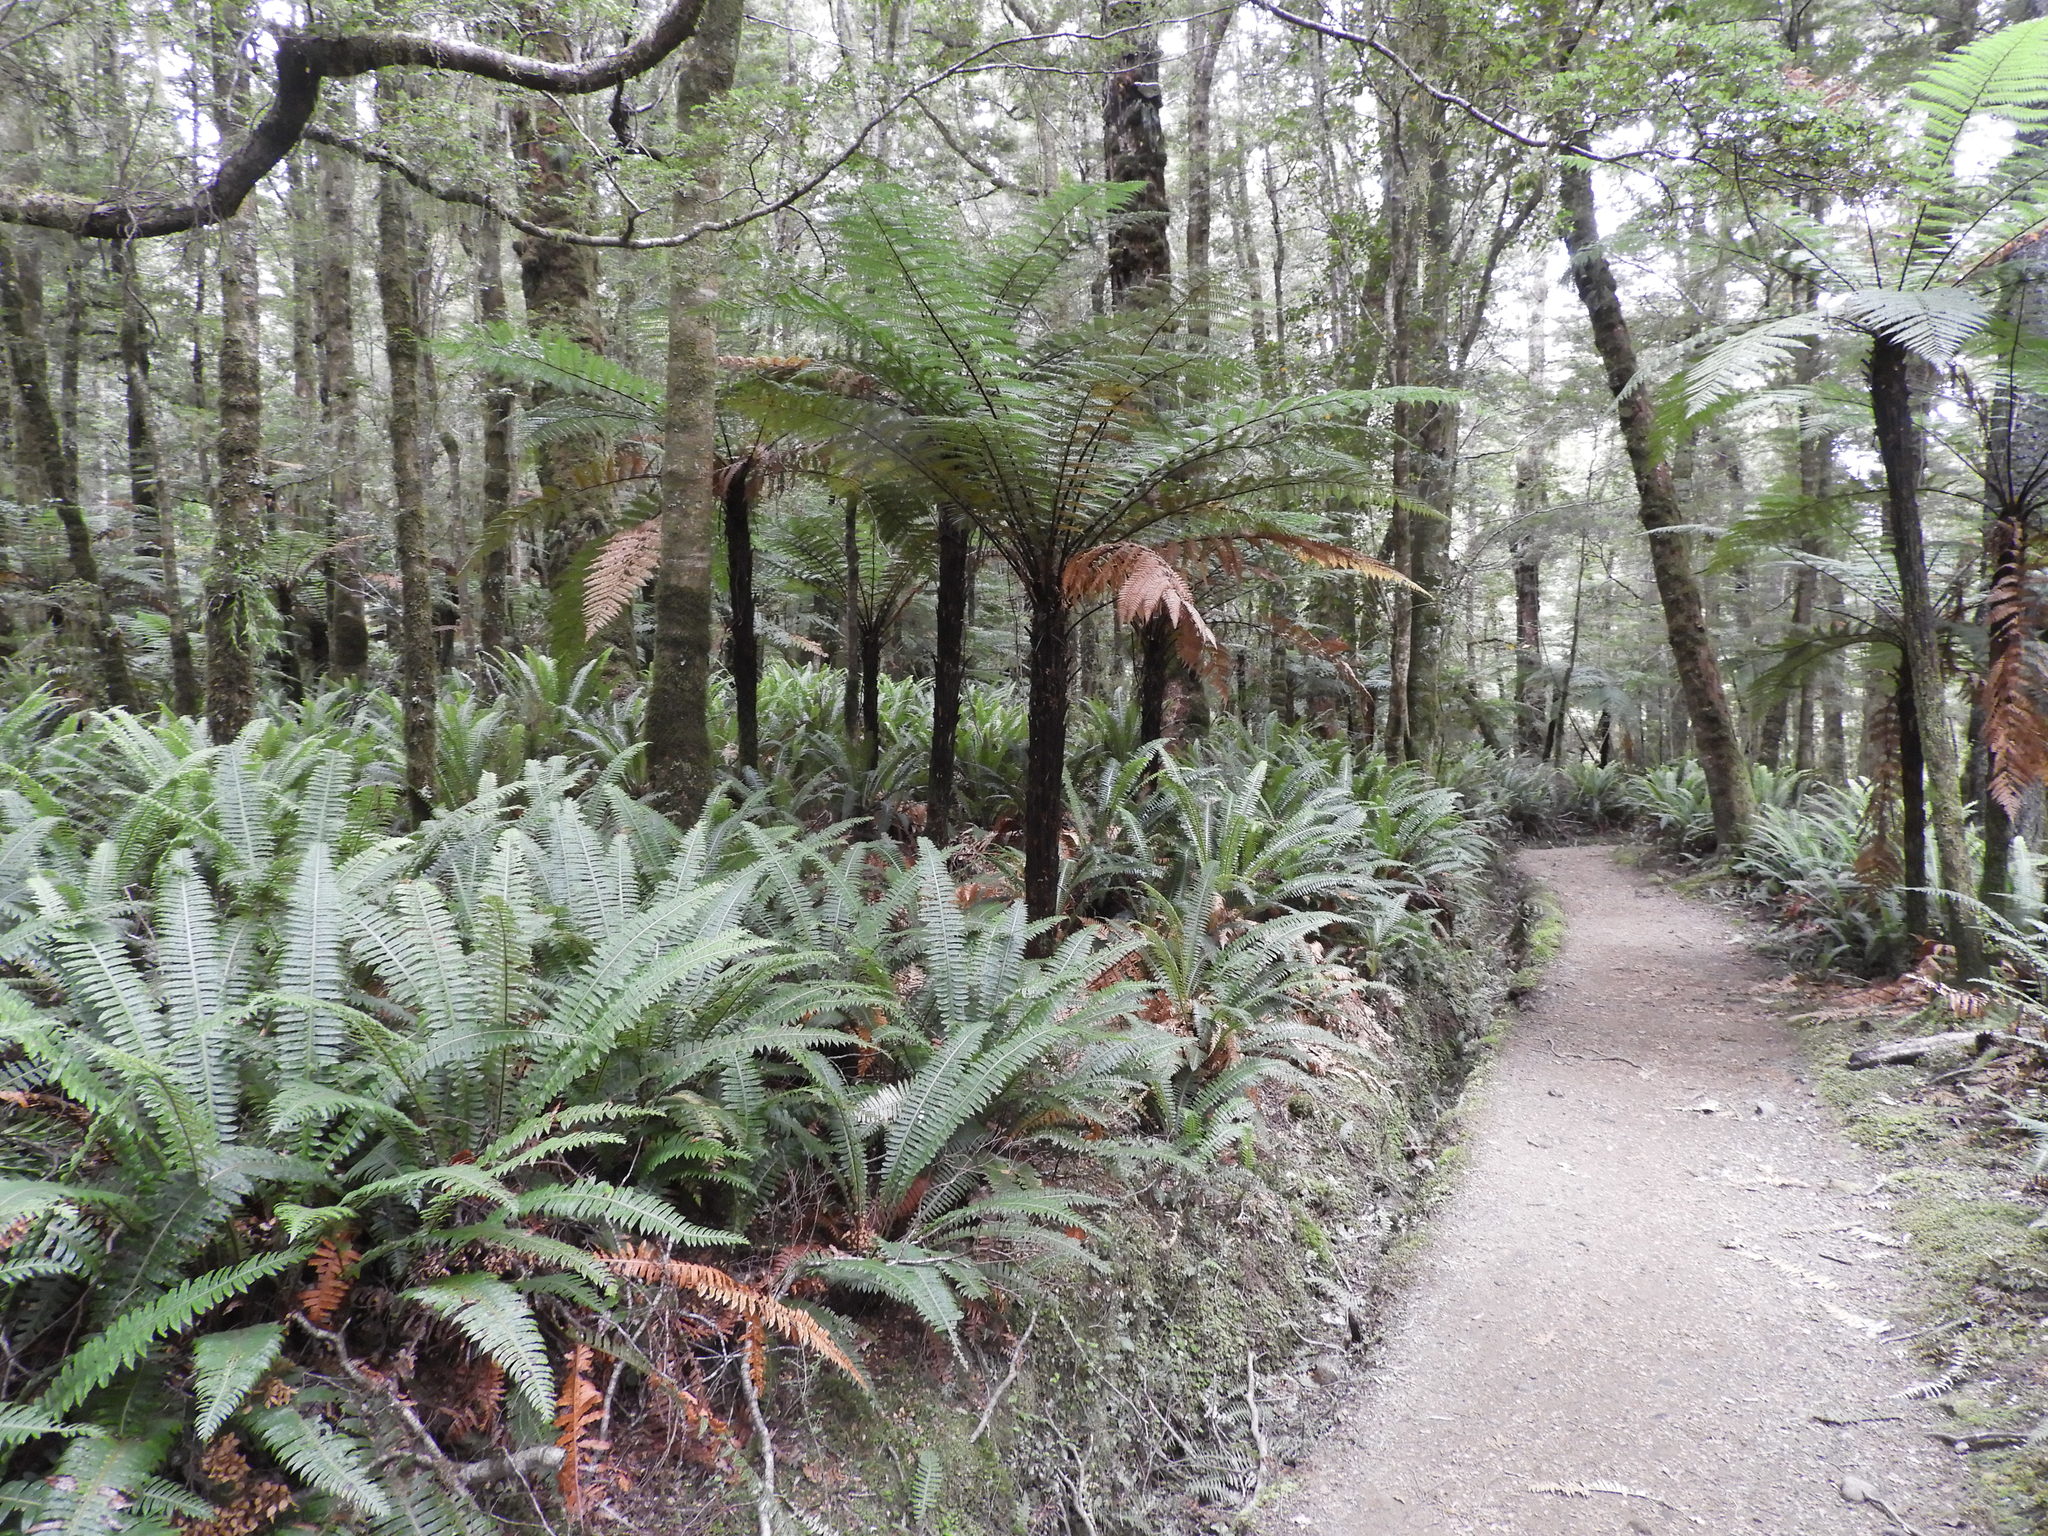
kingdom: Plantae
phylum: Tracheophyta
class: Polypodiopsida
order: Cyatheales
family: Dicksoniaceae
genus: Dicksonia
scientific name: Dicksonia squarrosa
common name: Hard treefern
